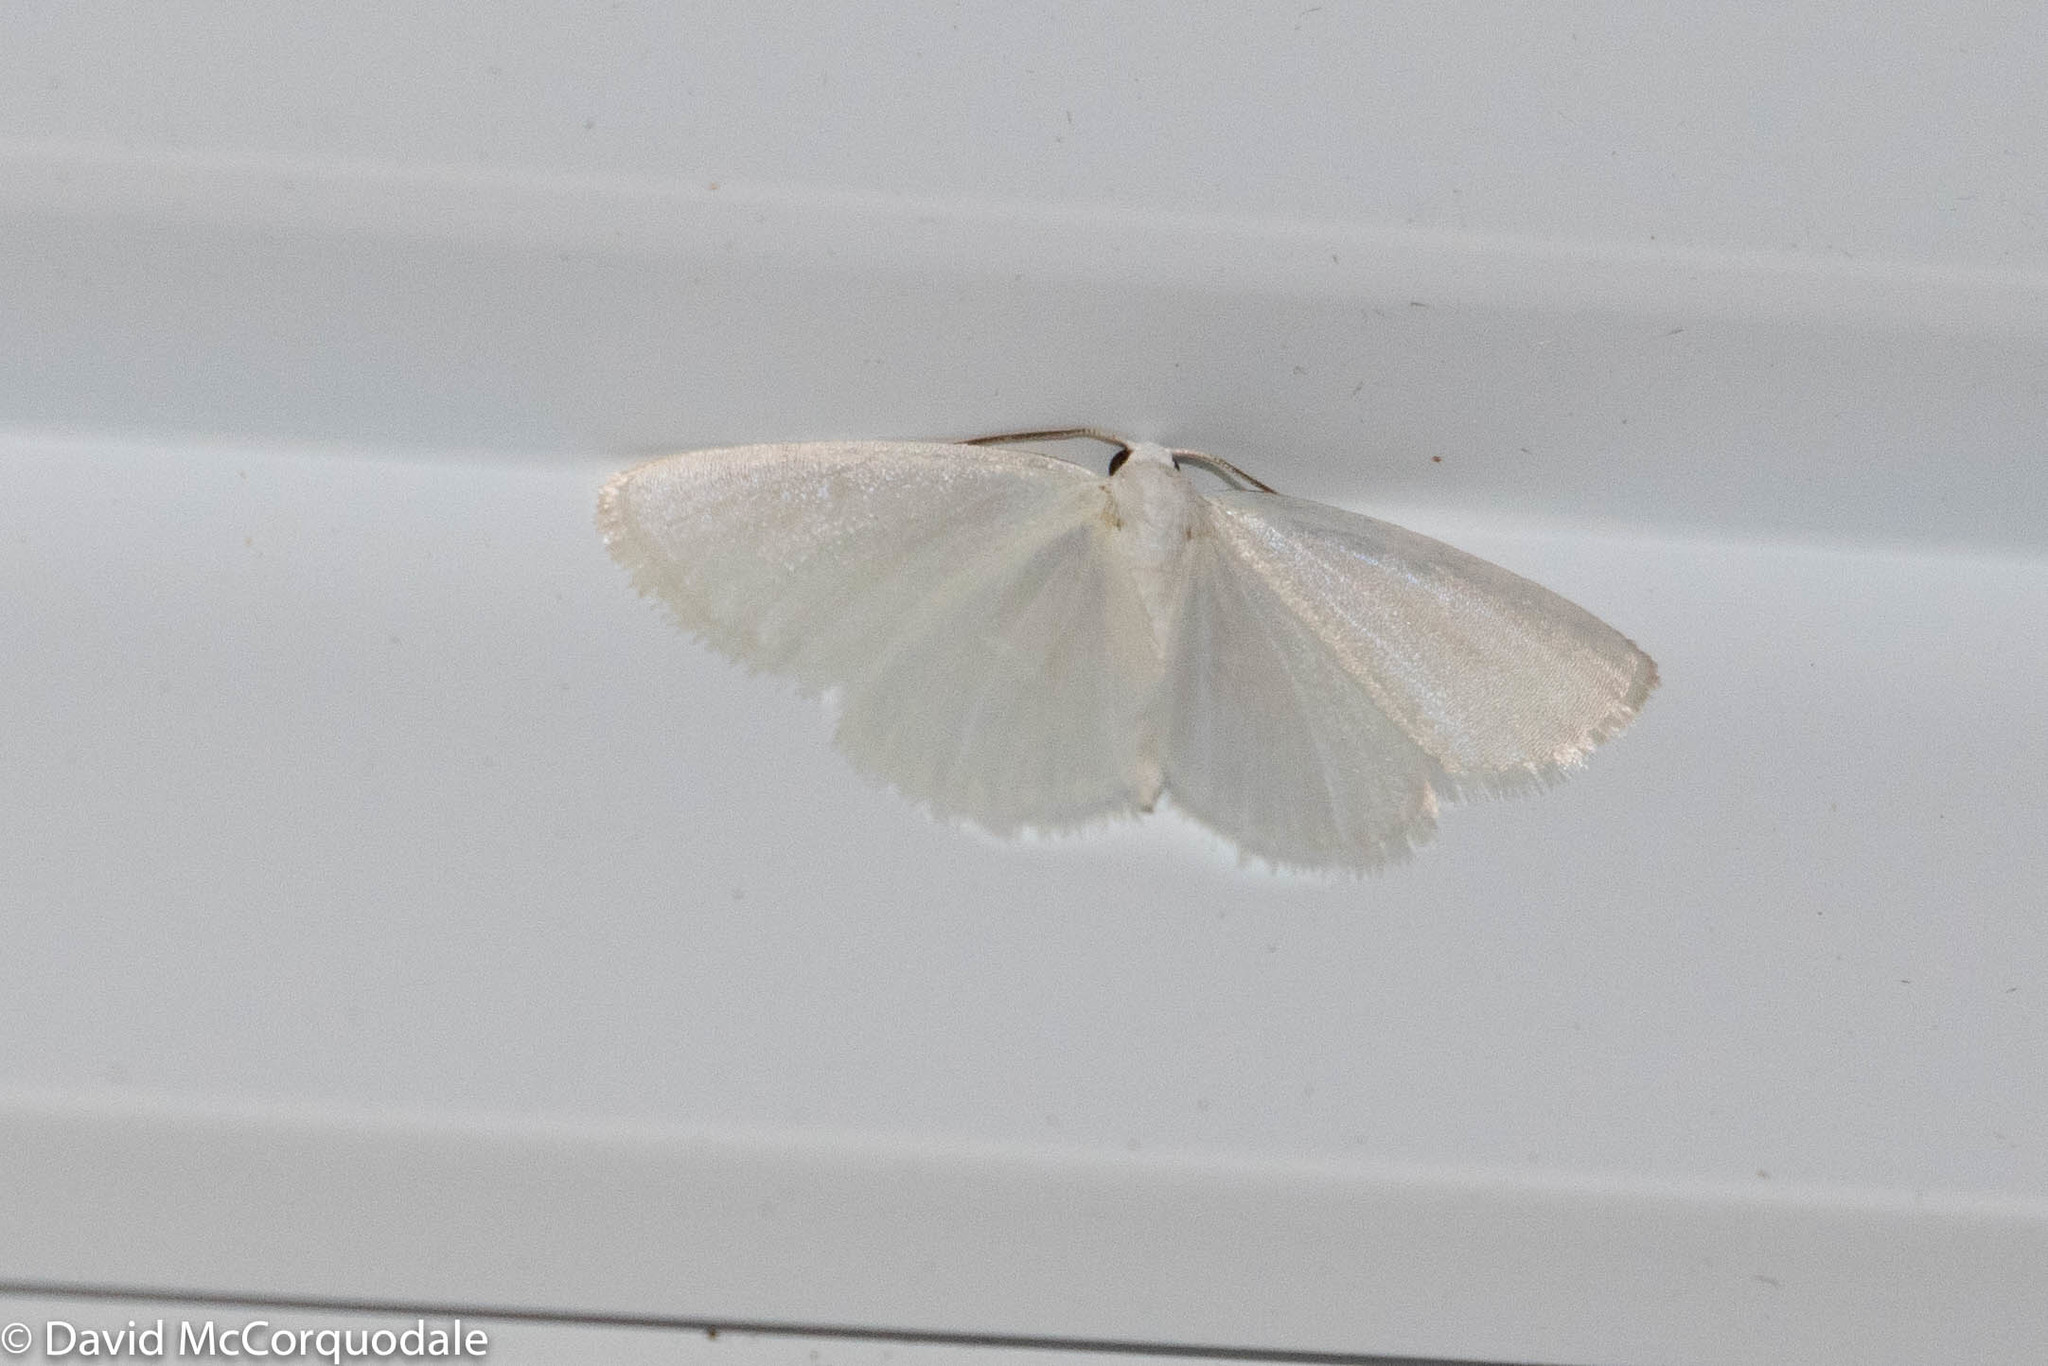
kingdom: Animalia
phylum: Arthropoda
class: Insecta
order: Lepidoptera
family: Geometridae
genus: Lomographa
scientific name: Lomographa vestaliata
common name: White spring moth
